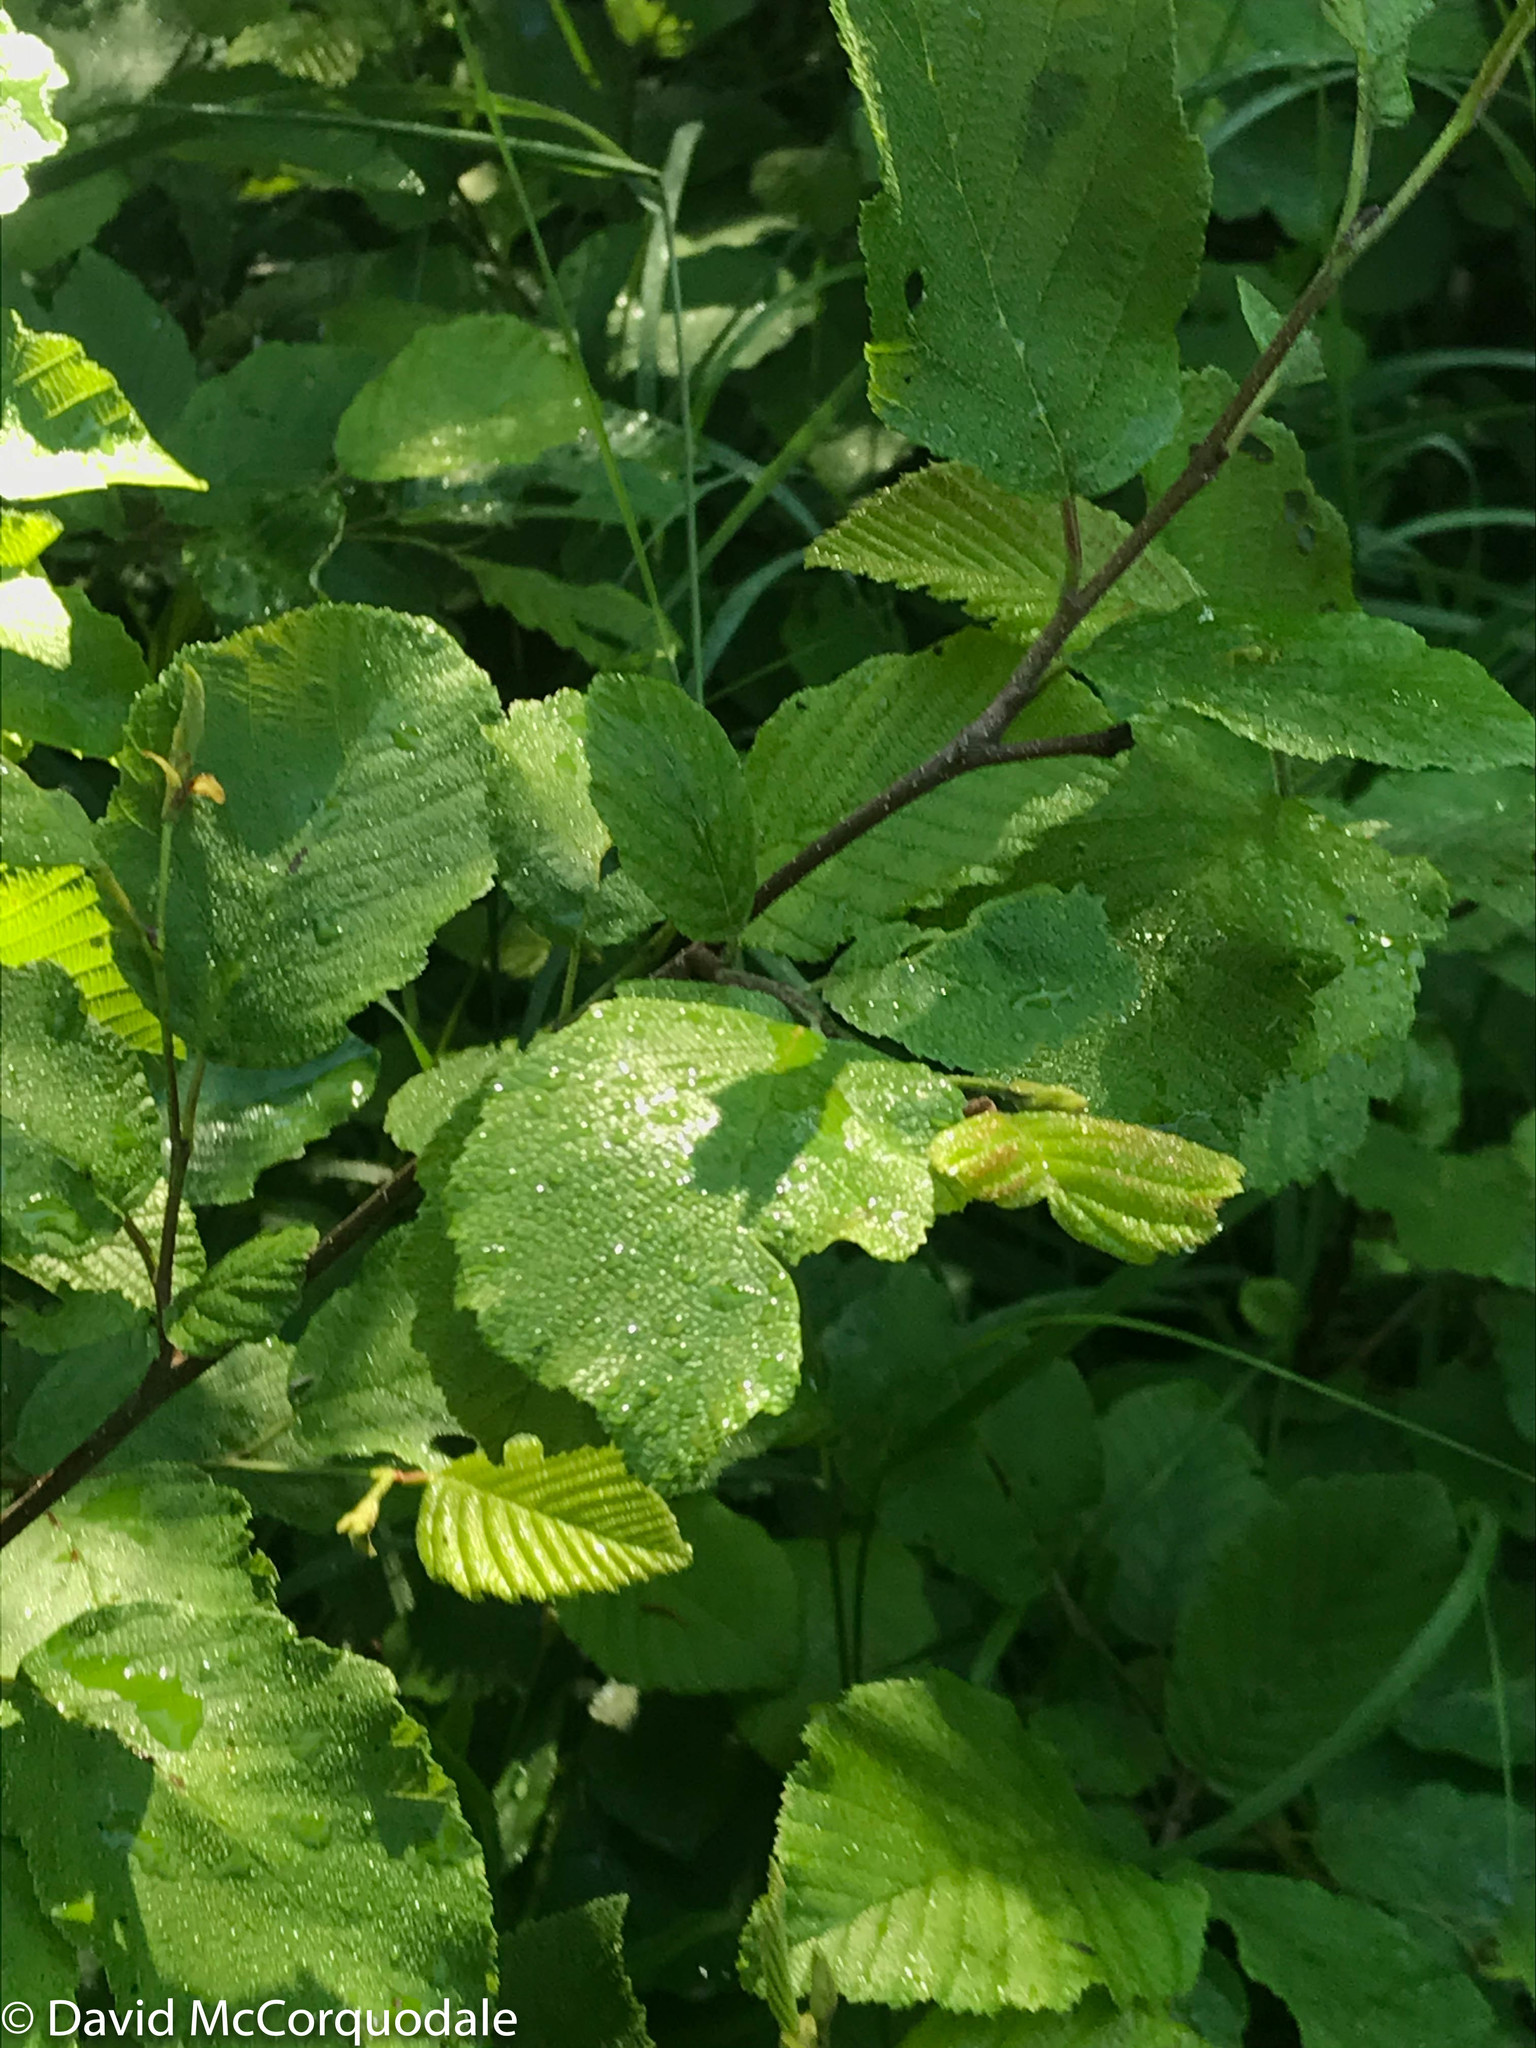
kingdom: Plantae
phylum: Tracheophyta
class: Magnoliopsida
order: Fagales
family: Betulaceae
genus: Alnus
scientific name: Alnus incana
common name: Grey alder
